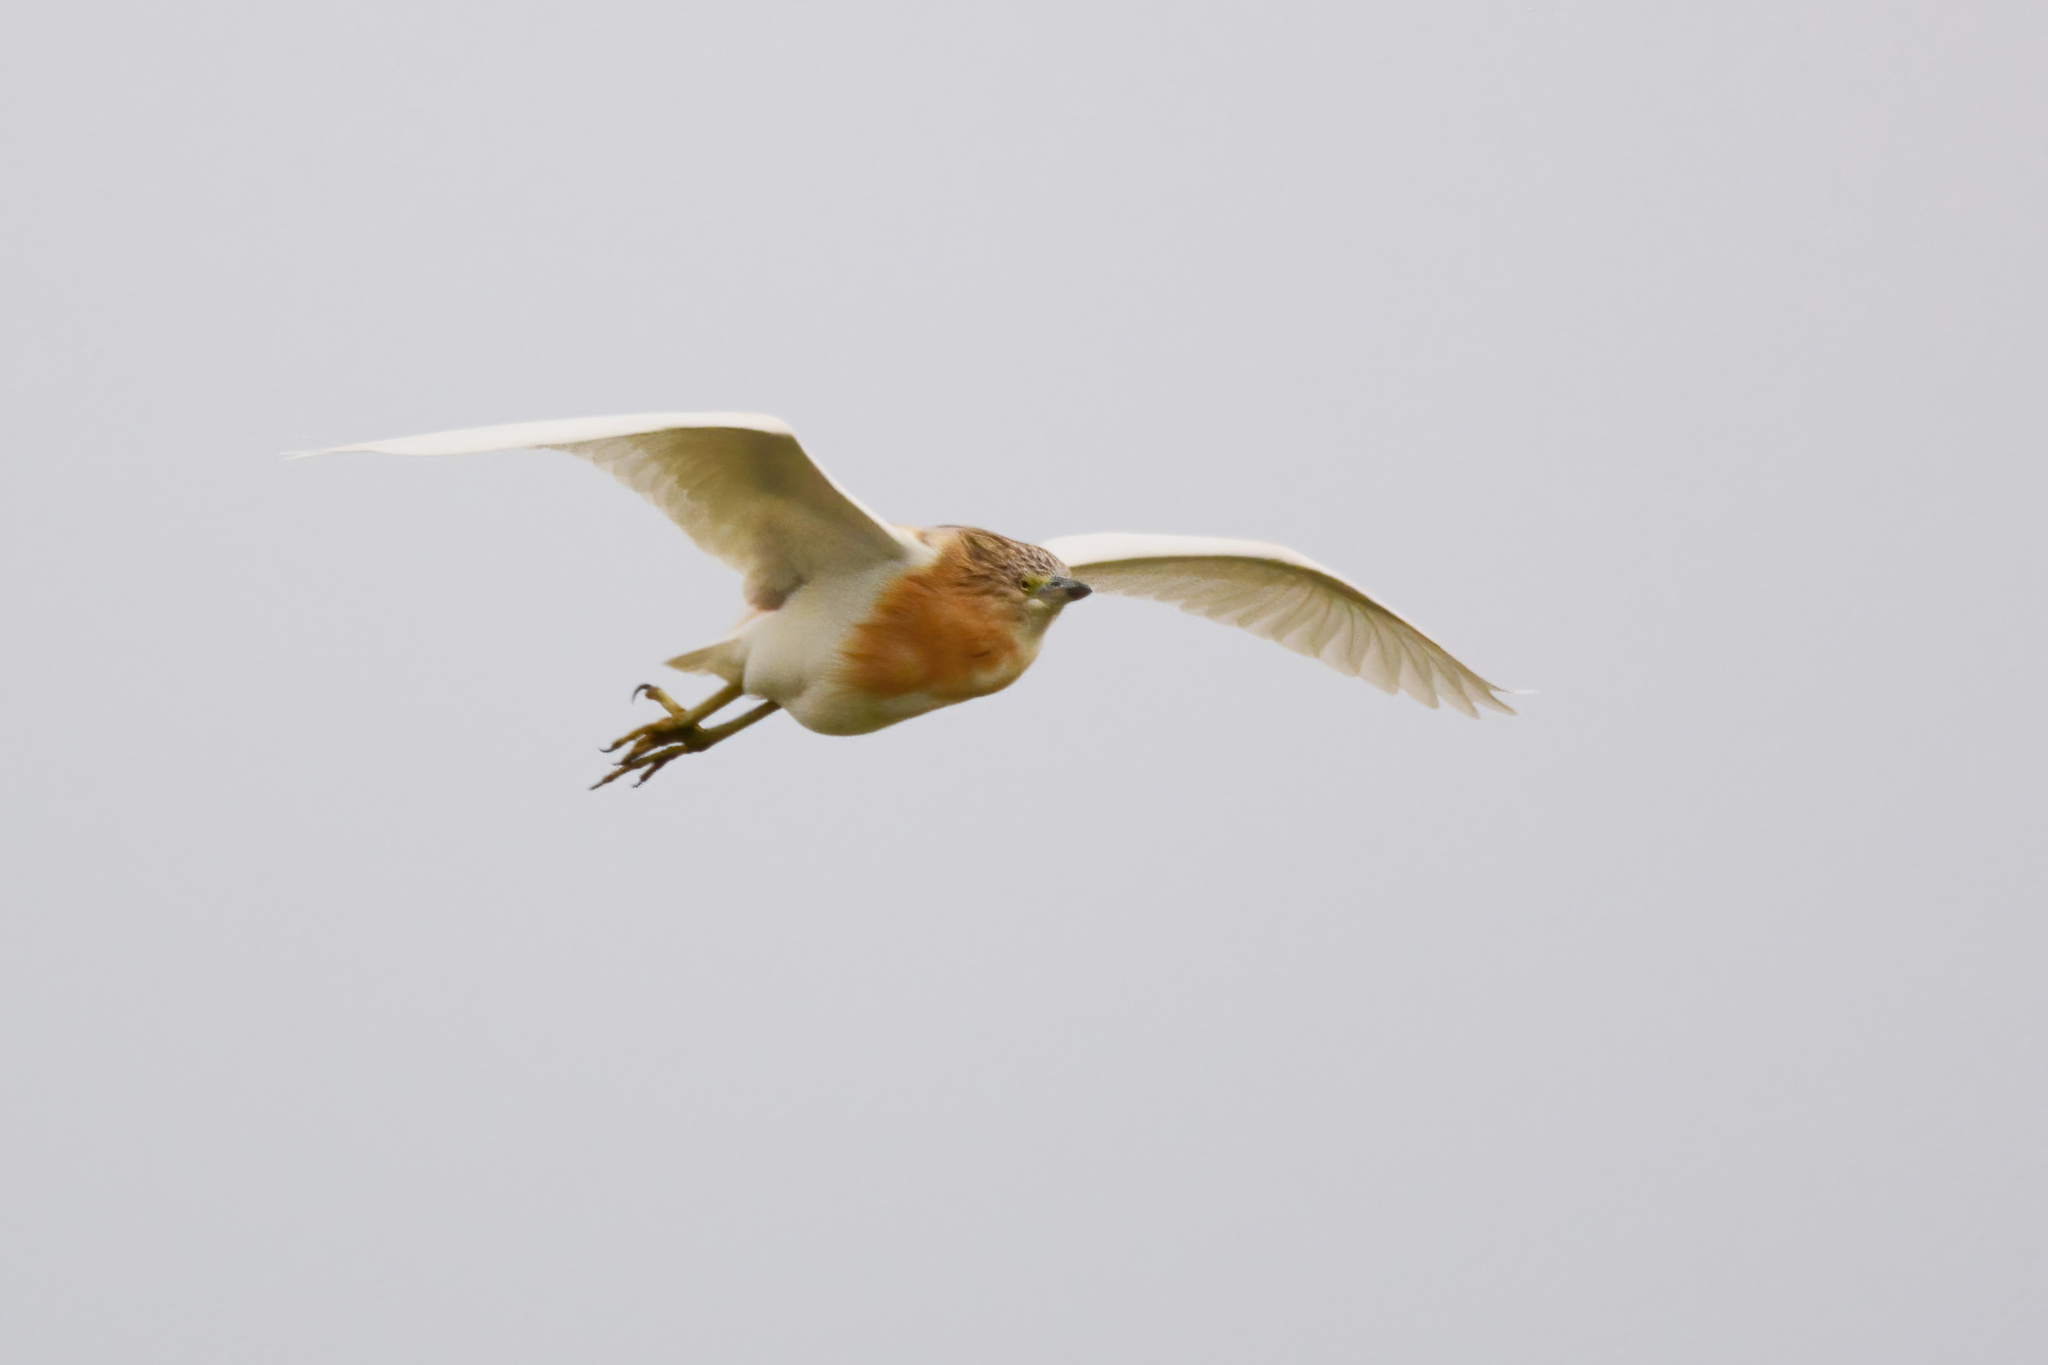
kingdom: Animalia
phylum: Chordata
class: Aves
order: Pelecaniformes
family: Ardeidae
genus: Ardeola
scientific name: Ardeola ralloides
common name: Squacco heron
